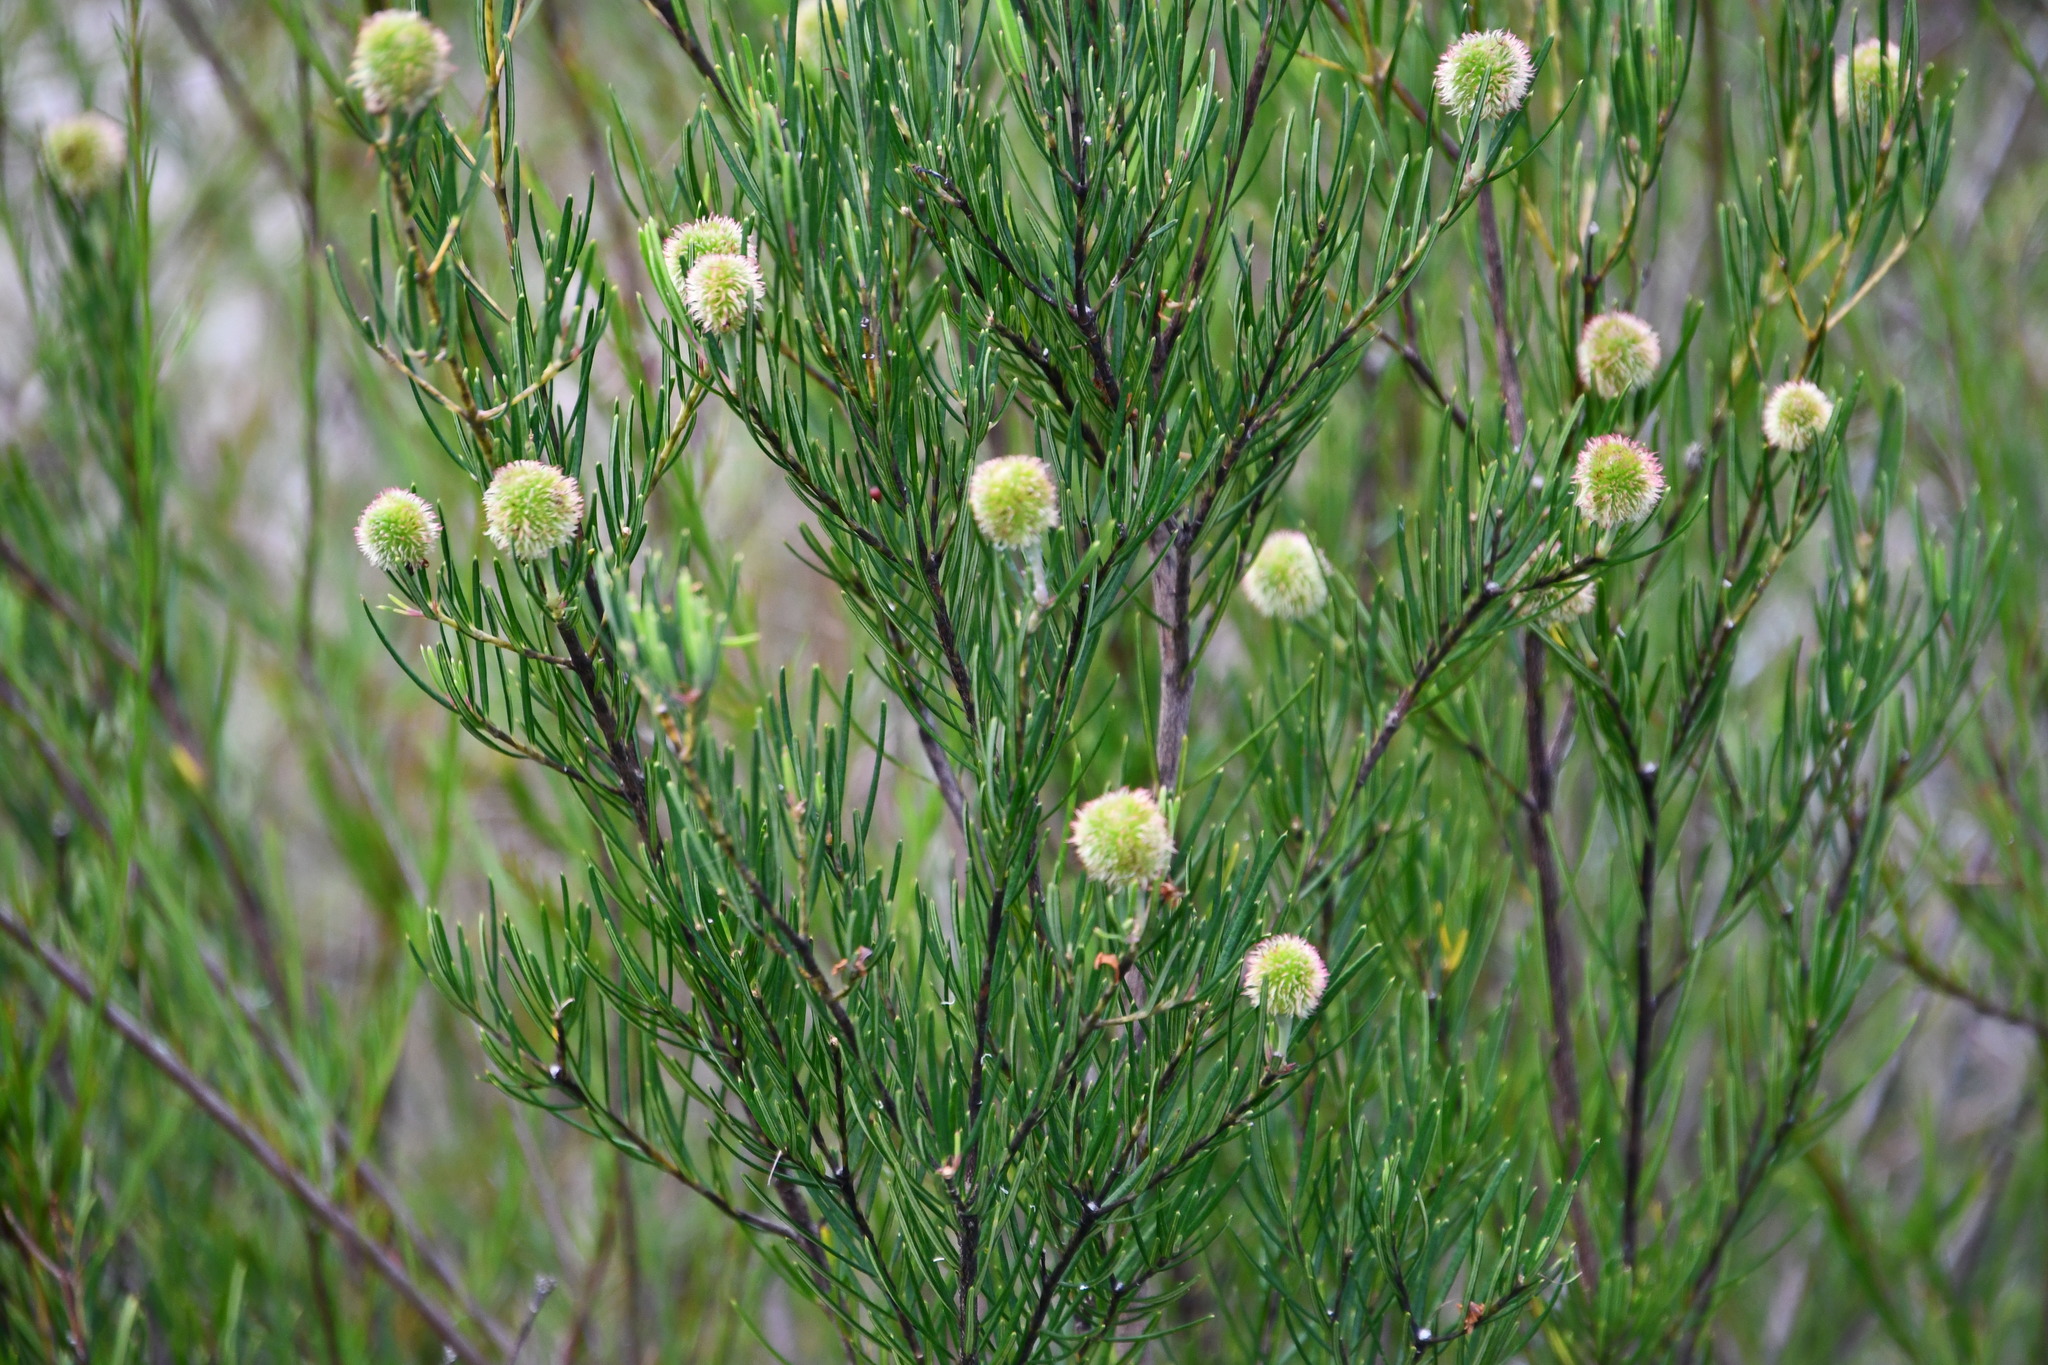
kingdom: Plantae
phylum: Tracheophyta
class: Magnoliopsida
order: Malpighiales
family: Euphorbiaceae
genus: Ricinocarpos
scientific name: Ricinocarpos pinifolius
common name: Weddingbush
